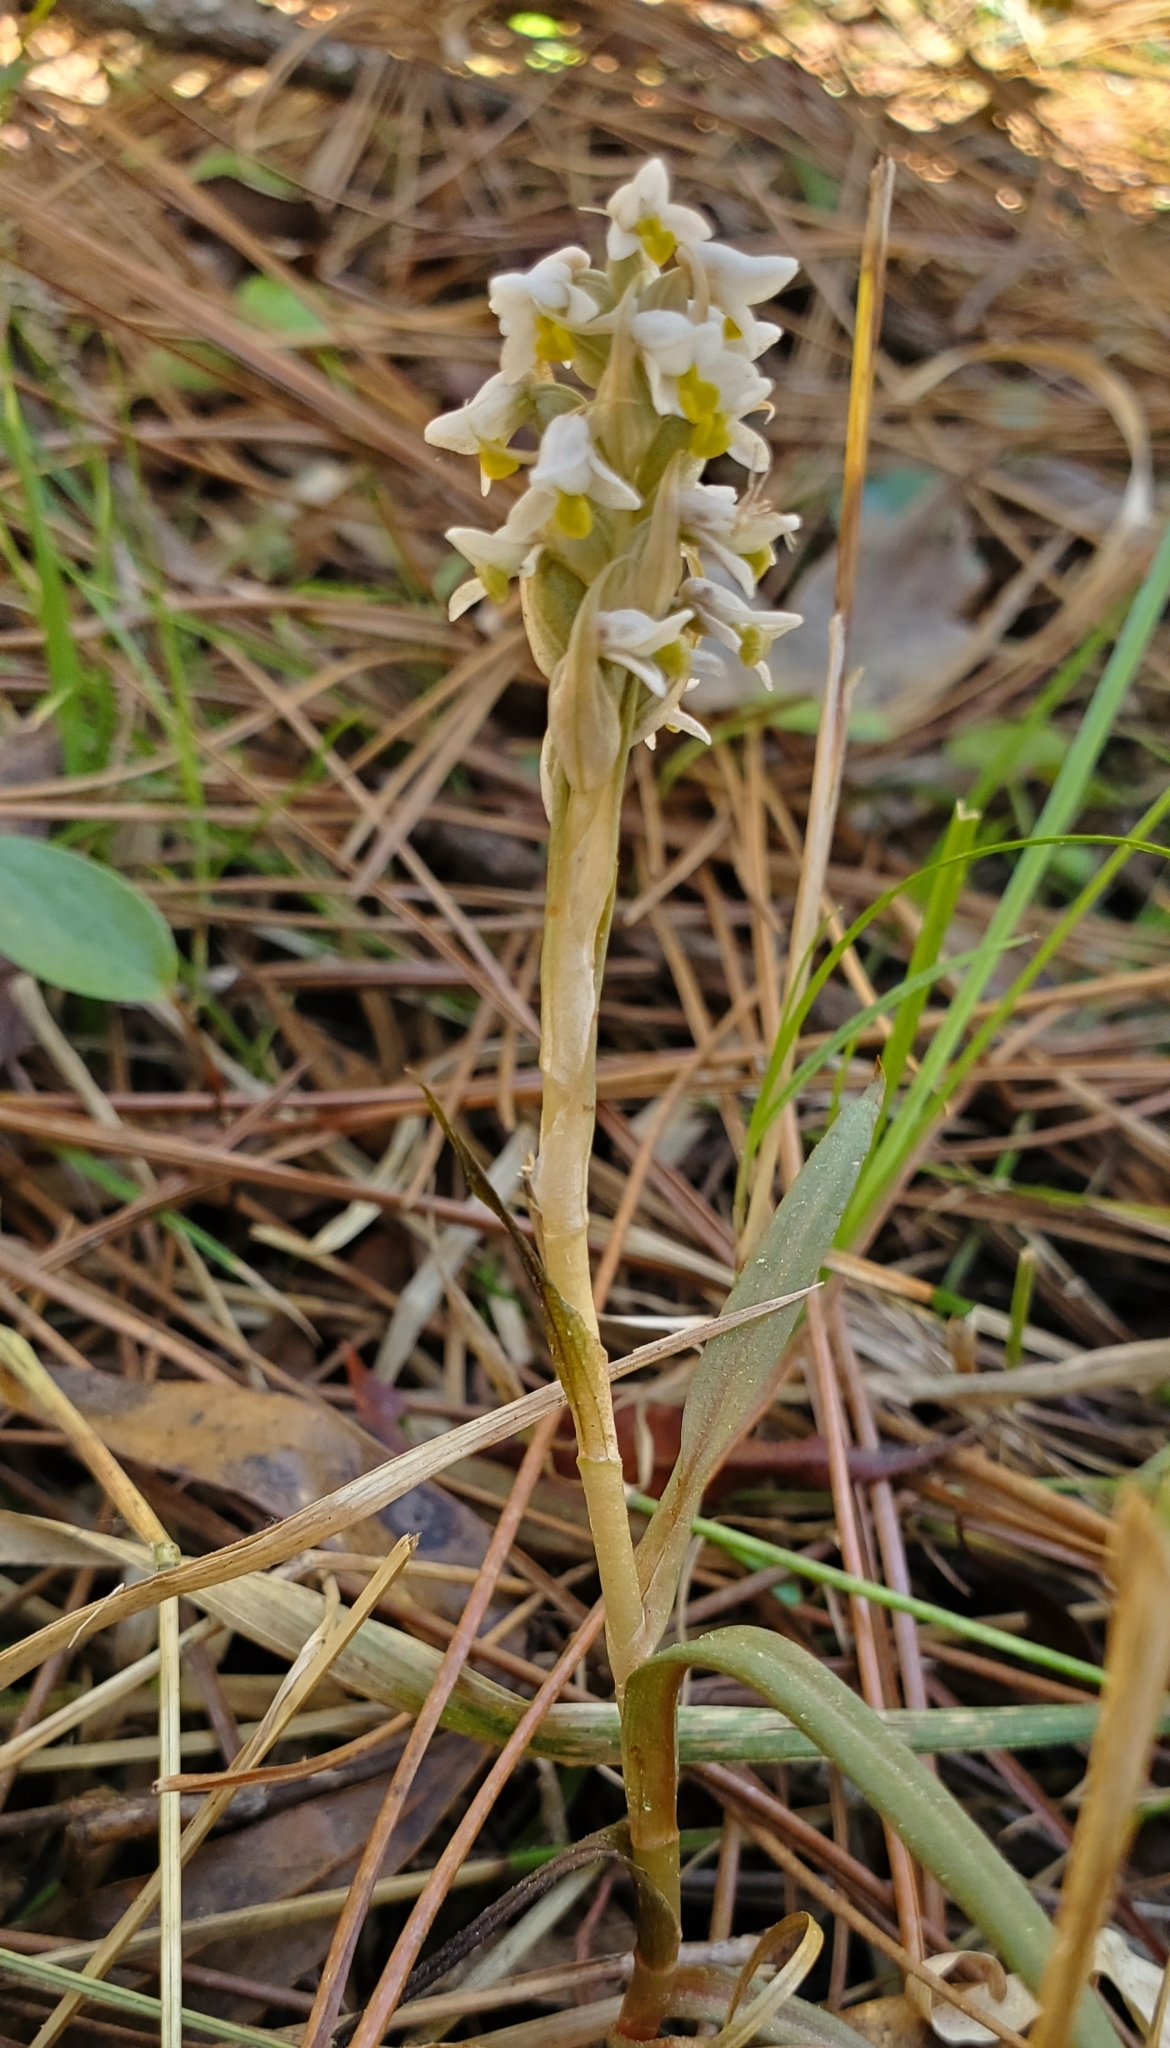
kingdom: Plantae
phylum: Tracheophyta
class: Liliopsida
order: Asparagales
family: Orchidaceae
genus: Zeuxine
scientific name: Zeuxine strateumatica
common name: Soldier's orchid
